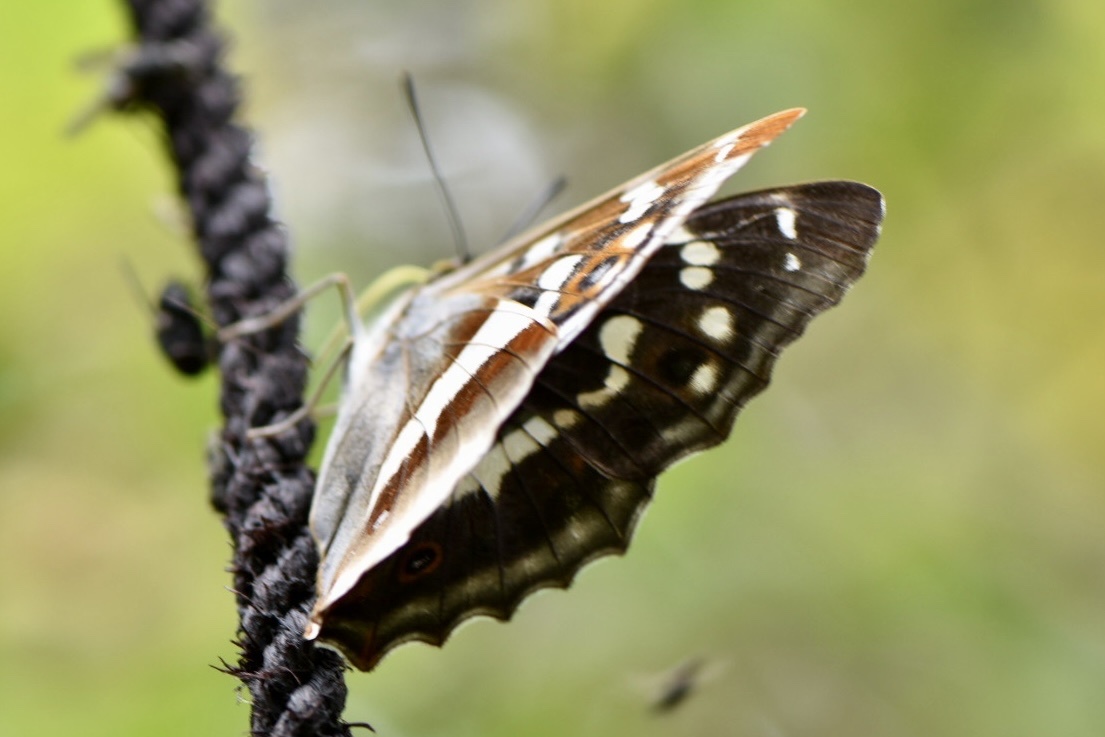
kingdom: Animalia
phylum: Arthropoda
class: Insecta
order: Lepidoptera
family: Nymphalidae
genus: Apatura
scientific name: Apatura iris
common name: Purple emperor
